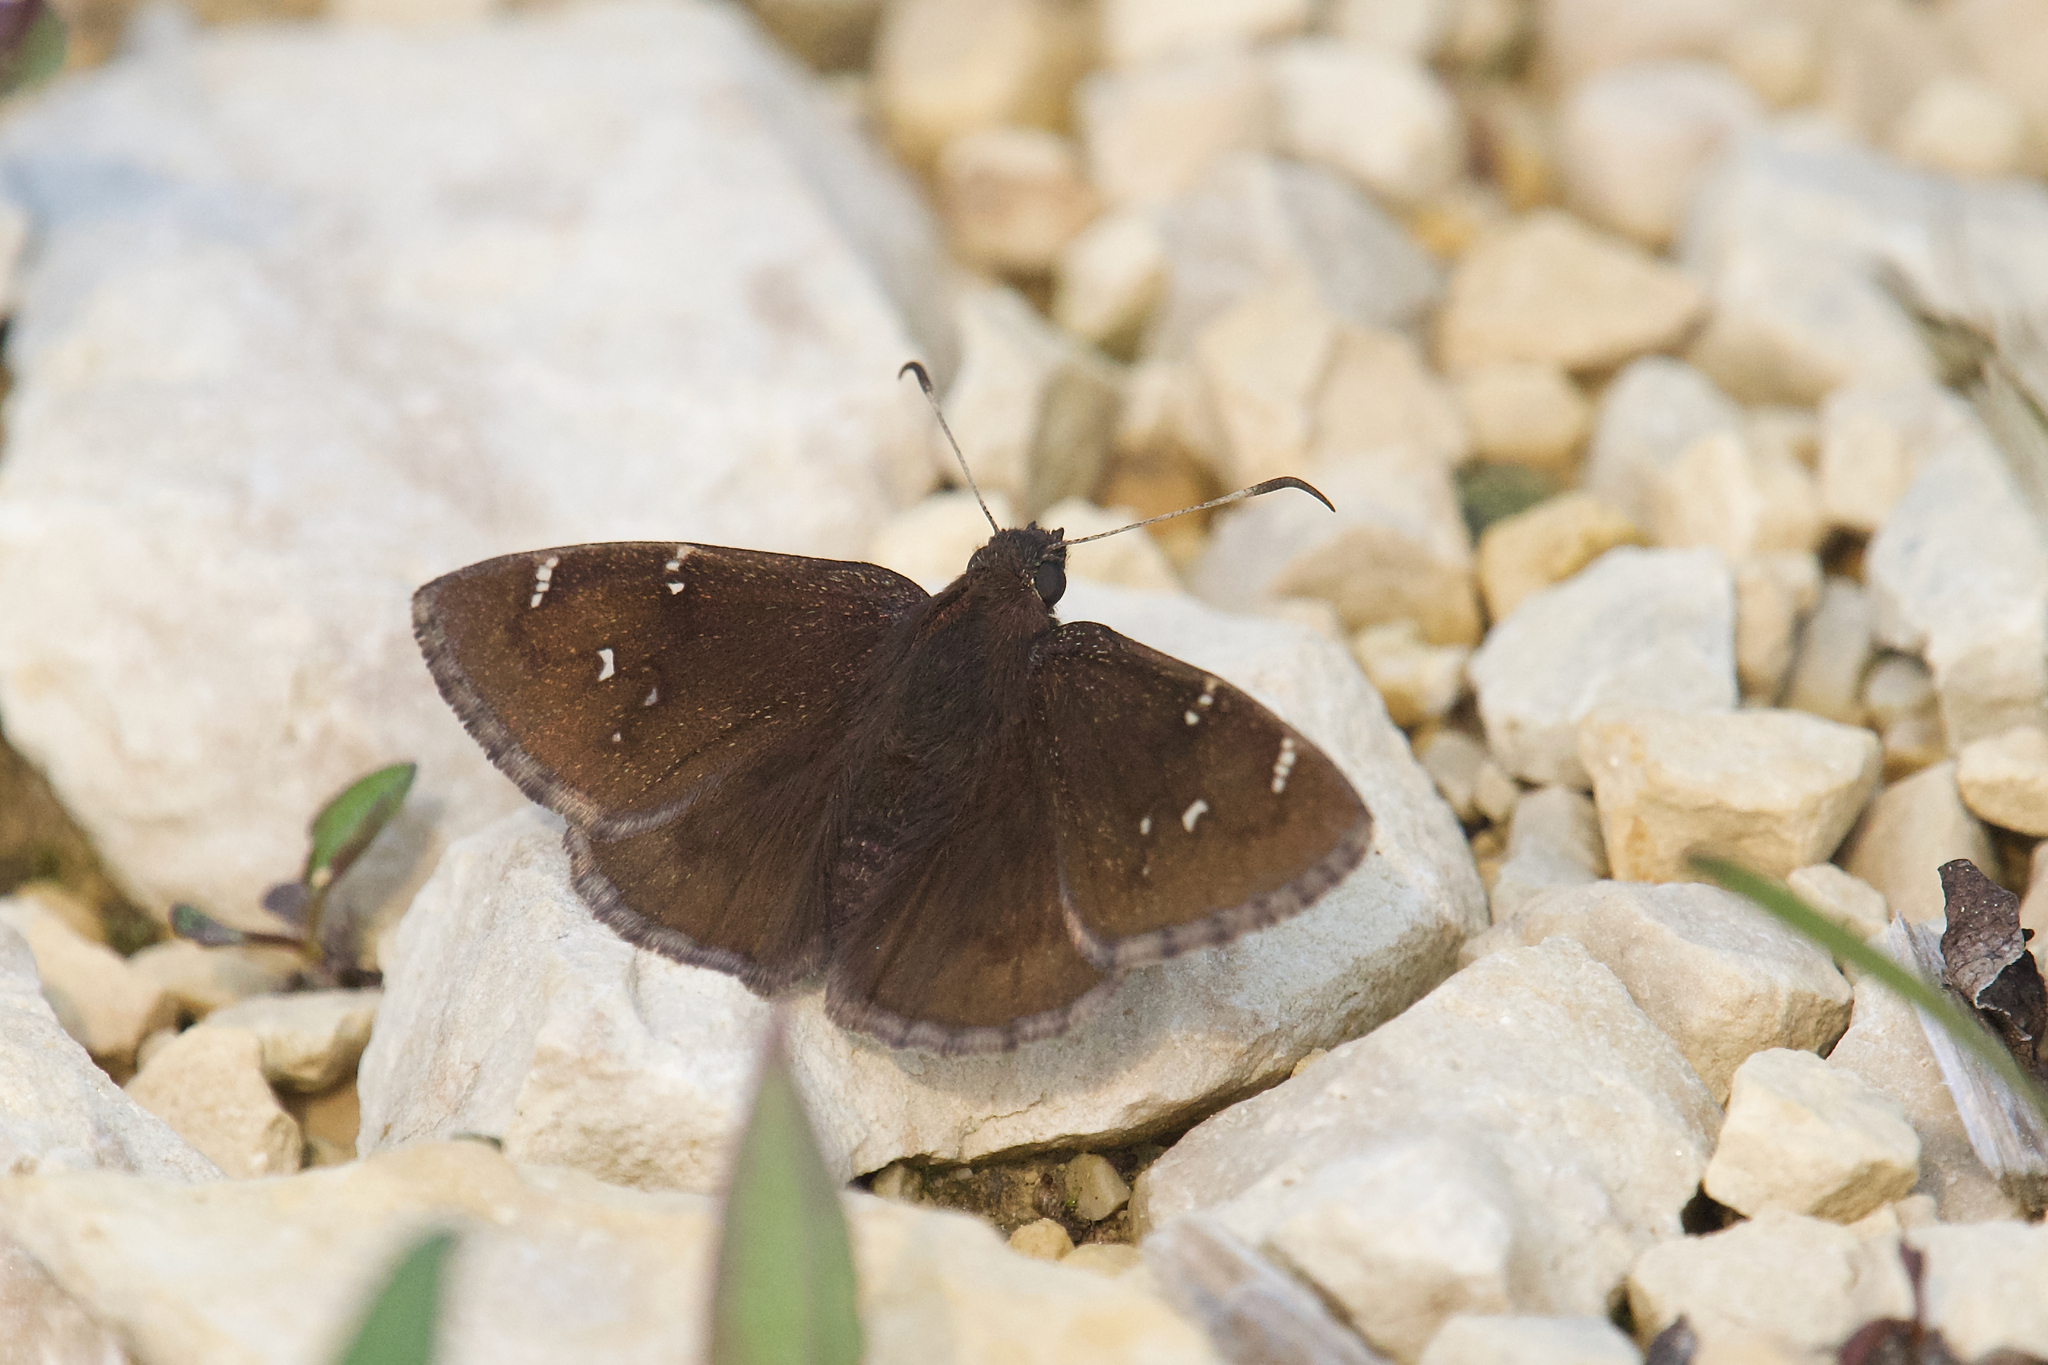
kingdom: Animalia
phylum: Arthropoda
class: Insecta
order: Lepidoptera
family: Hesperiidae
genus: Thorybes
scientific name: Thorybes pylades
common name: Northern cloudywing
